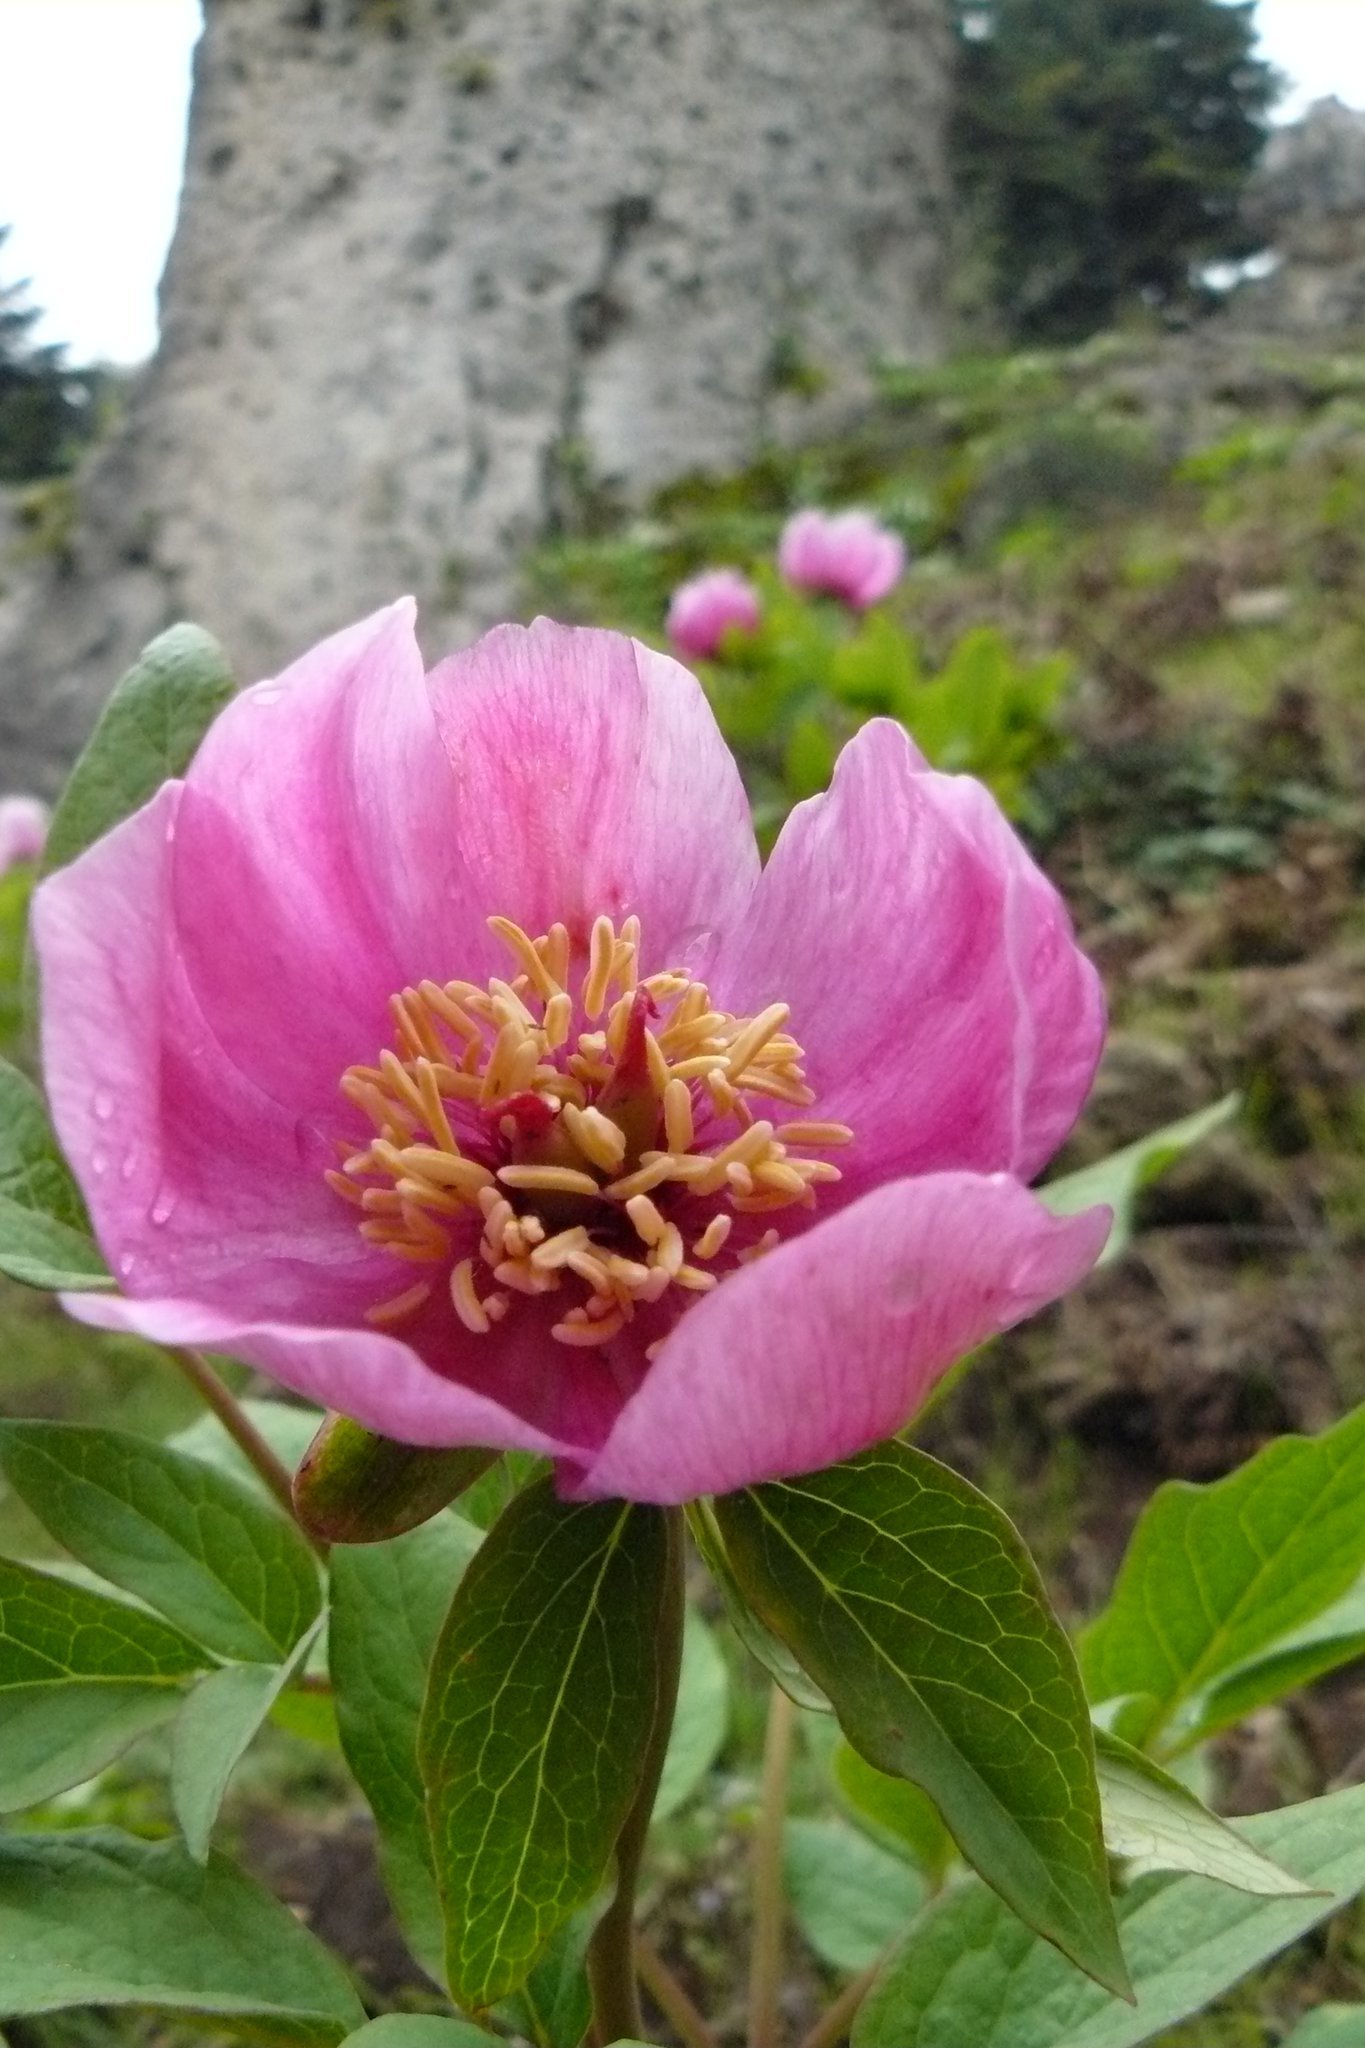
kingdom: Plantae
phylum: Tracheophyta
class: Magnoliopsida
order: Saxifragales
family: Paeoniaceae
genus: Paeonia
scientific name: Paeonia mascula
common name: Peony
